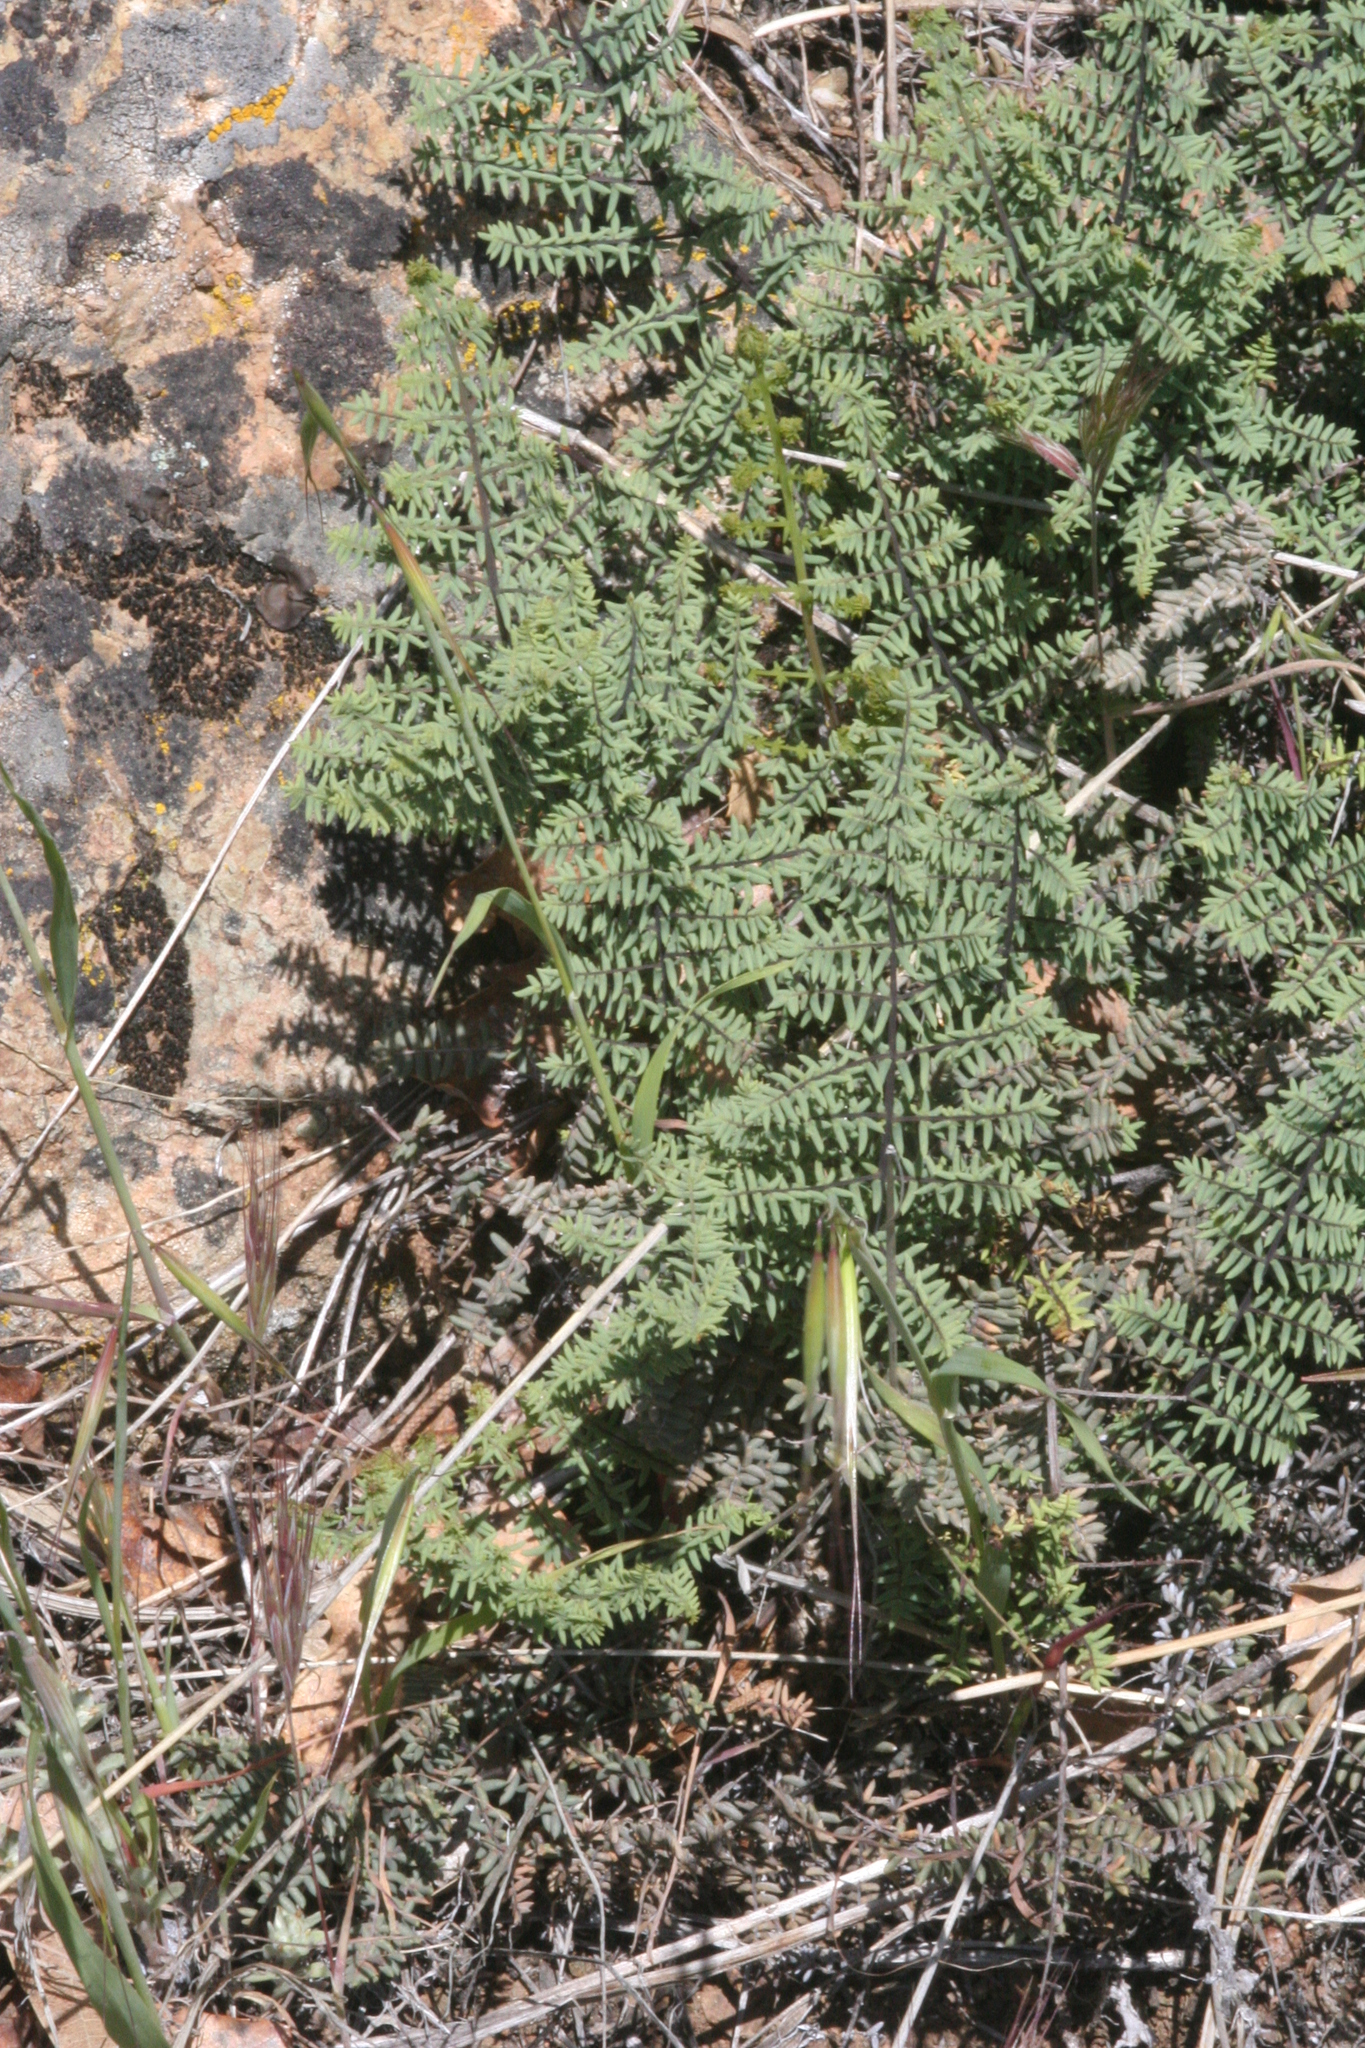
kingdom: Plantae
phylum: Tracheophyta
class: Polypodiopsida
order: Polypodiales
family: Pteridaceae
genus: Pellaea
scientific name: Pellaea mucronata
